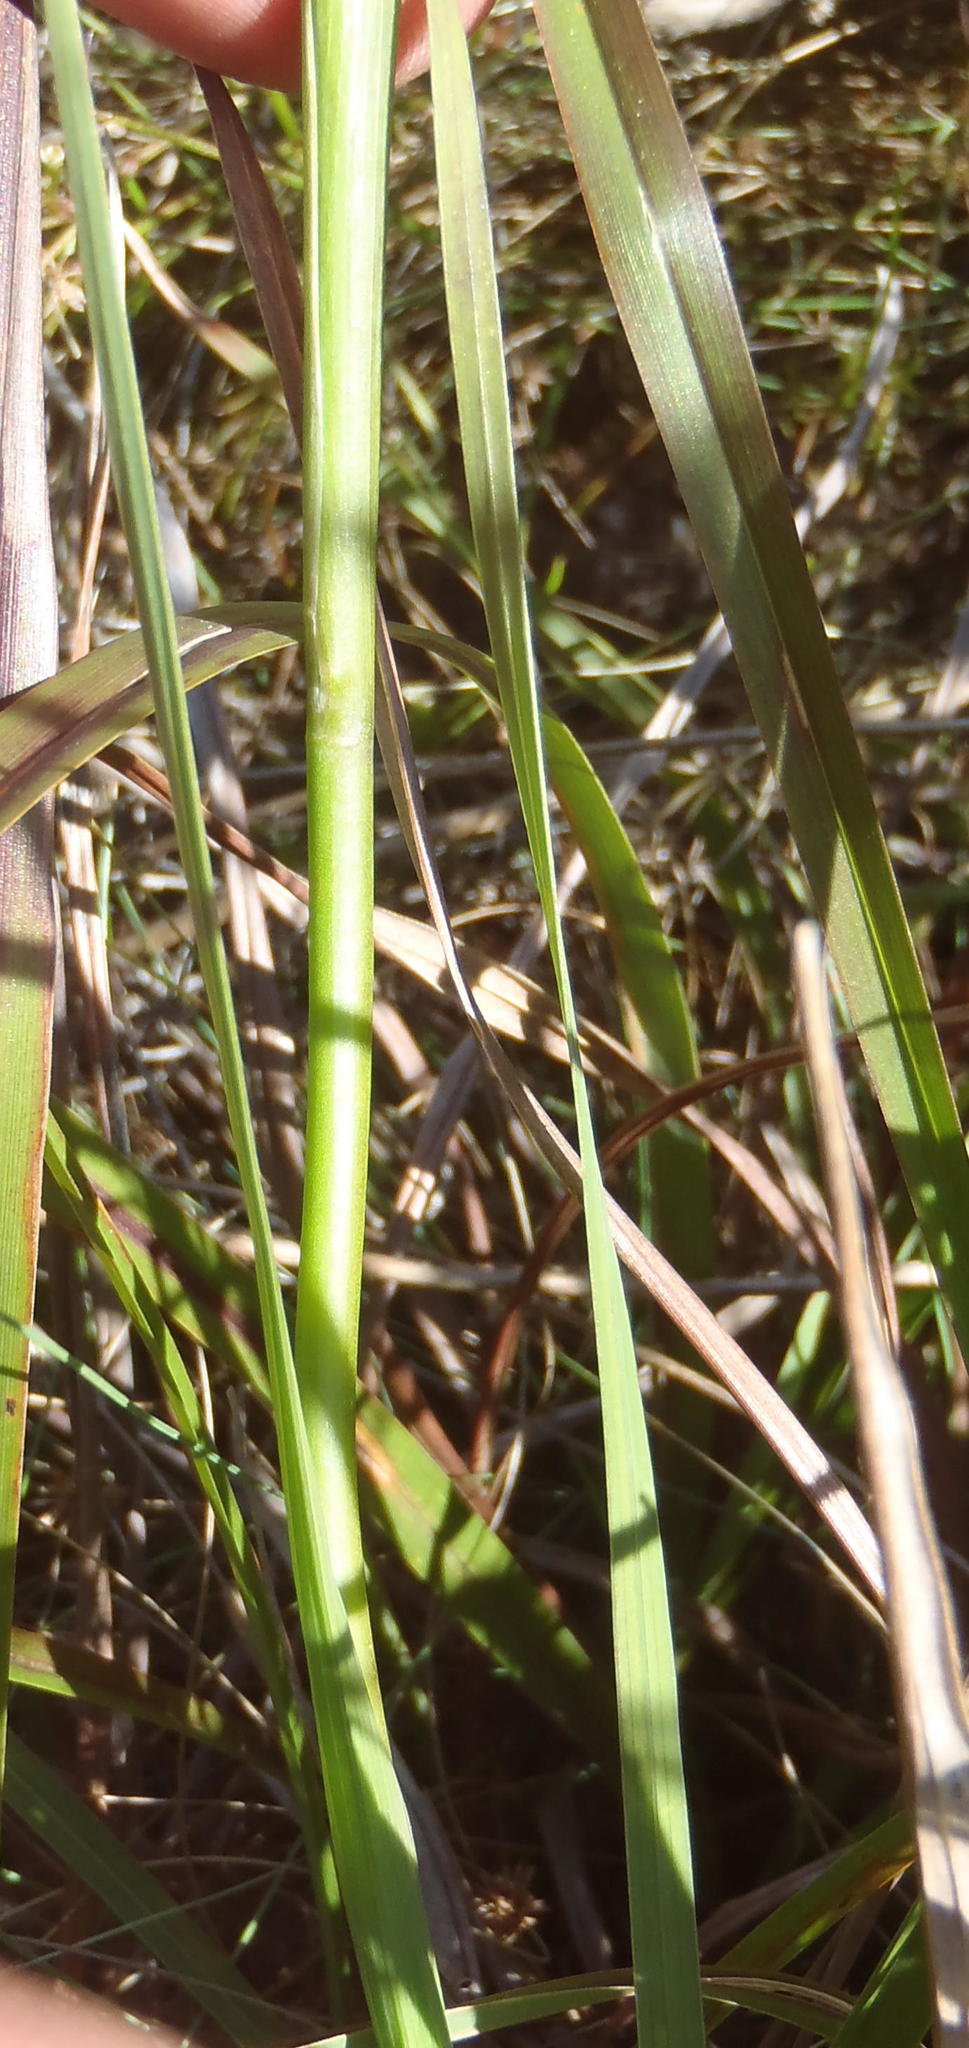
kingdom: Plantae
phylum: Tracheophyta
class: Liliopsida
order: Asparagales
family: Iridaceae
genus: Gladiolus
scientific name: Gladiolus carneus
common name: Painted-lady
